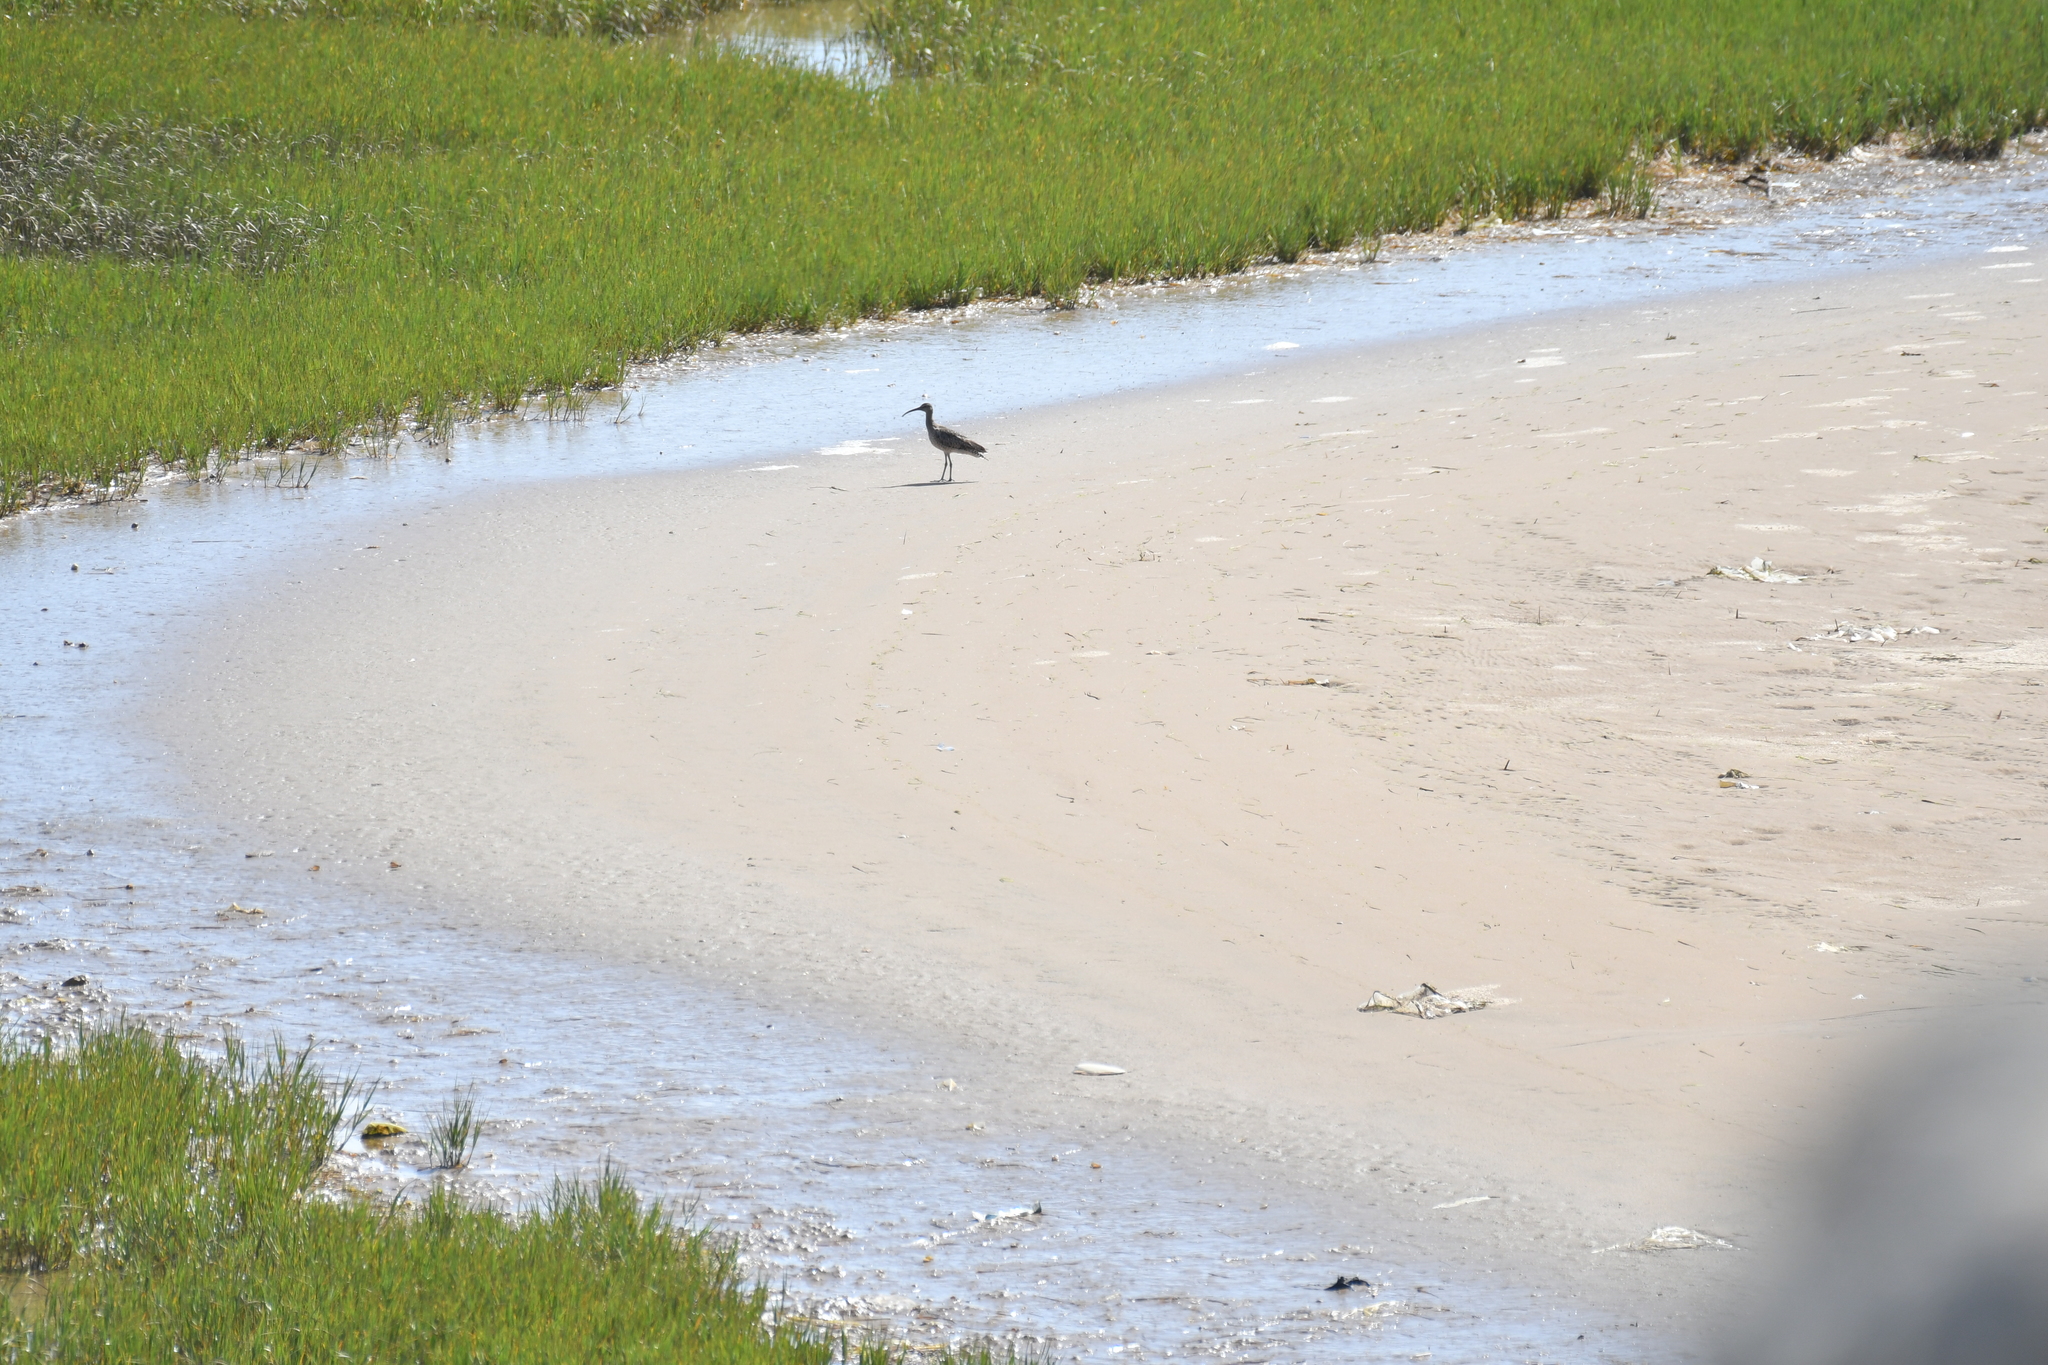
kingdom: Animalia
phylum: Chordata
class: Aves
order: Charadriiformes
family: Scolopacidae
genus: Numenius
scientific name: Numenius phaeopus
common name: Whimbrel
